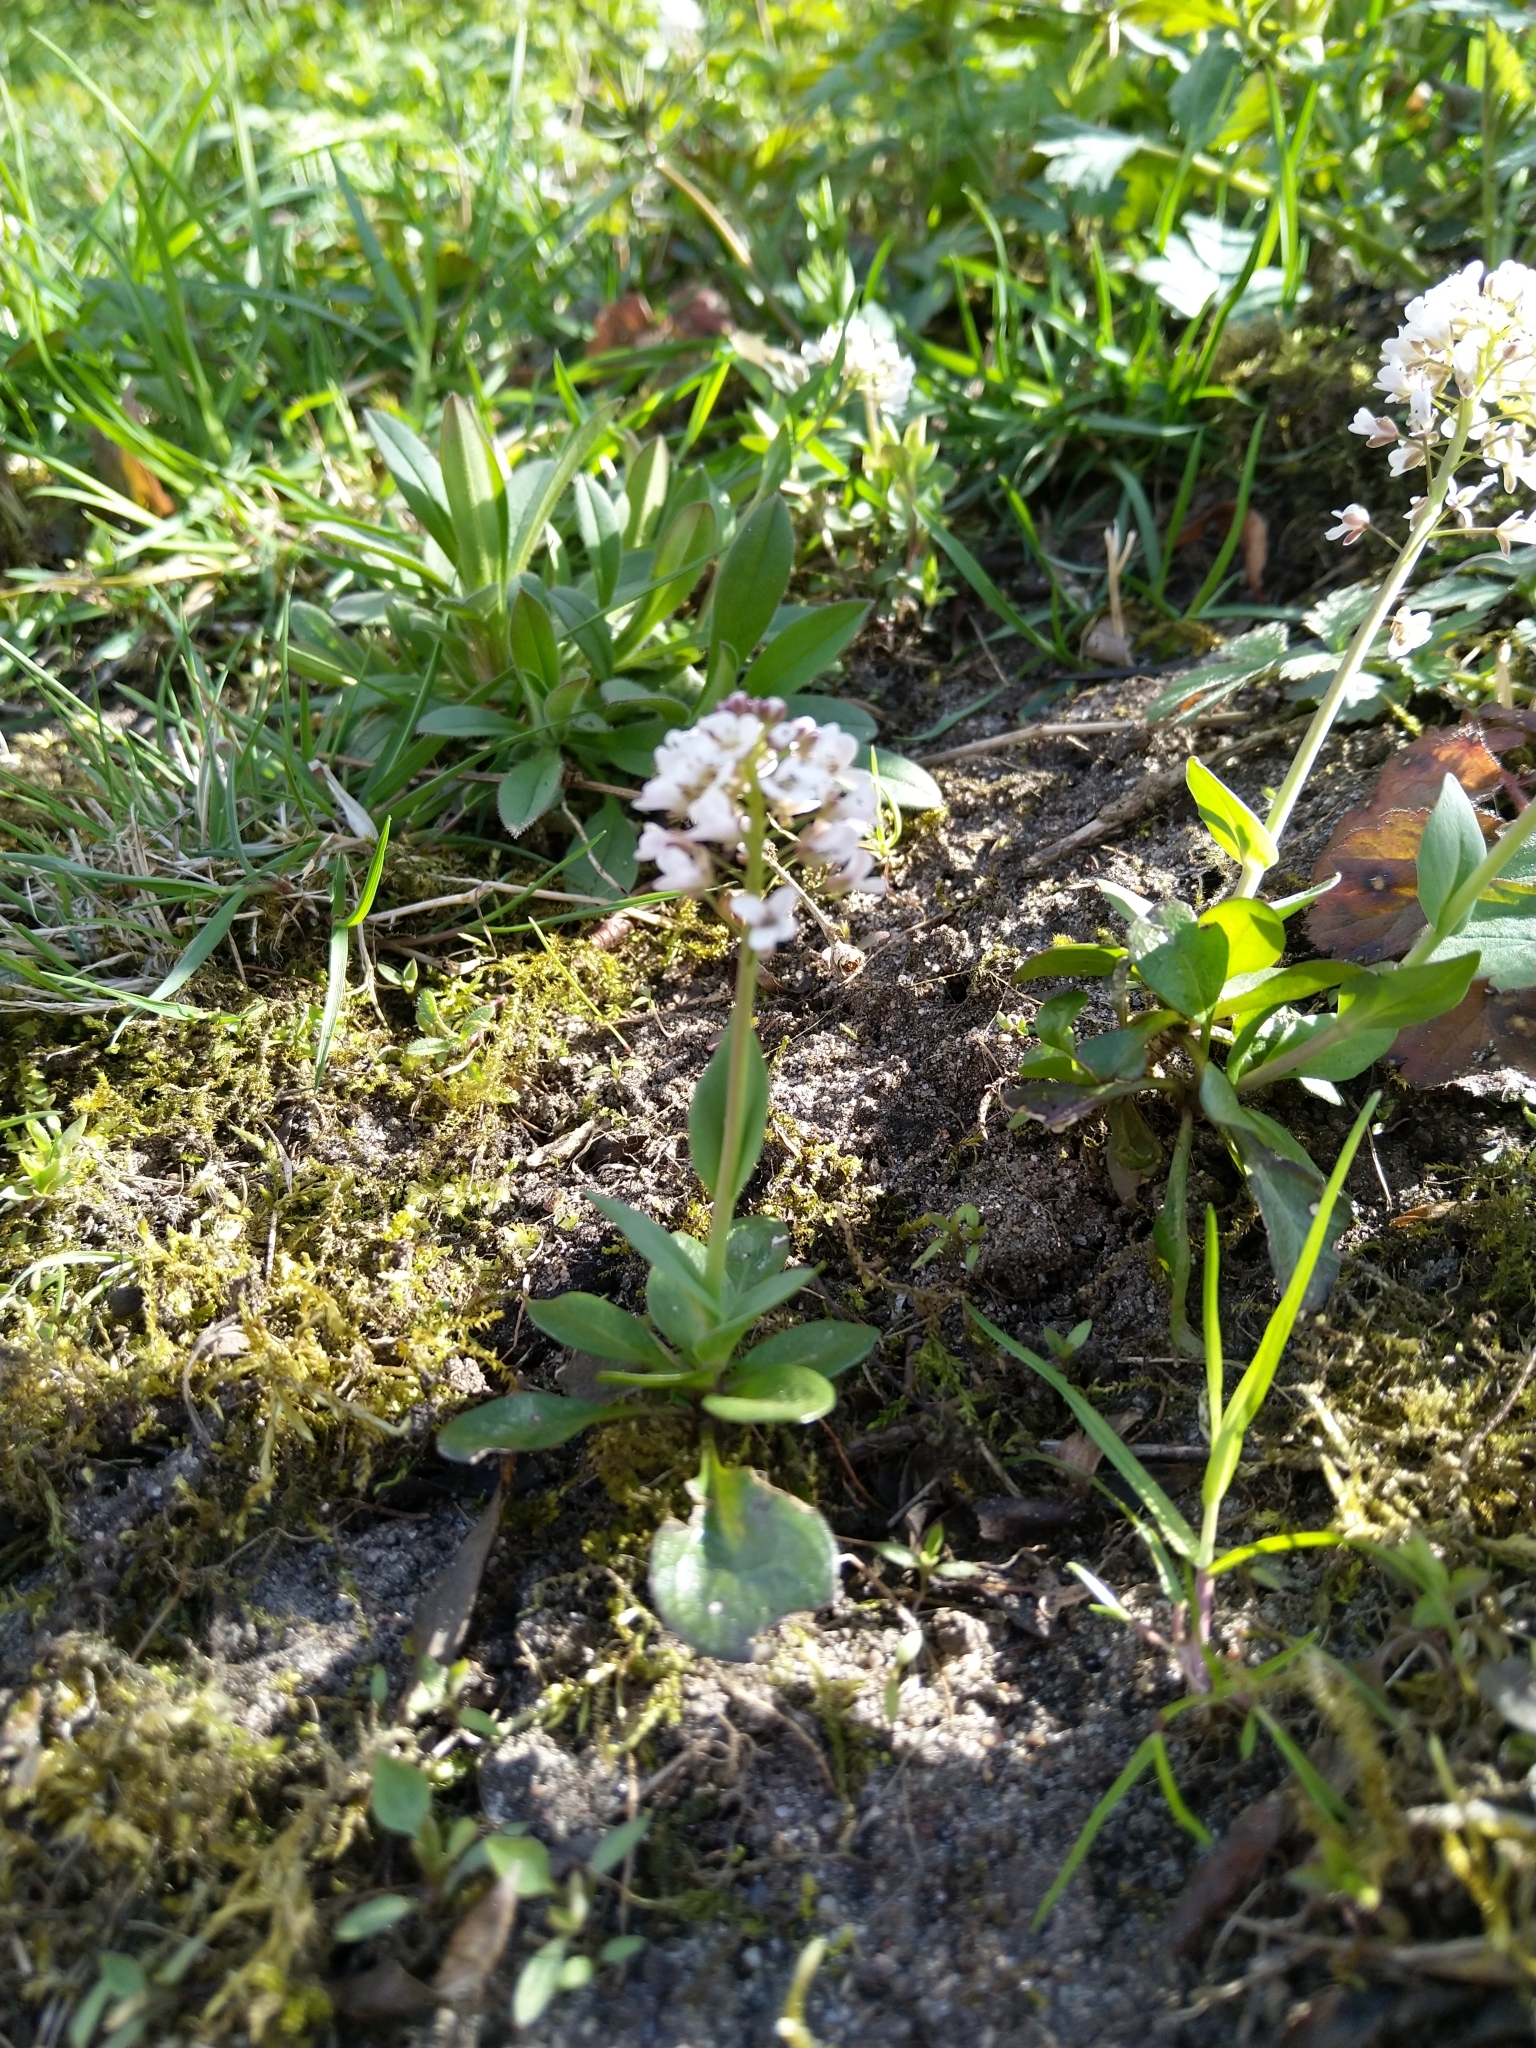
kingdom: Plantae
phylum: Tracheophyta
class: Magnoliopsida
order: Brassicales
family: Brassicaceae
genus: Noccaea
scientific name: Noccaea caerulescens
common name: Alpine pennycress
